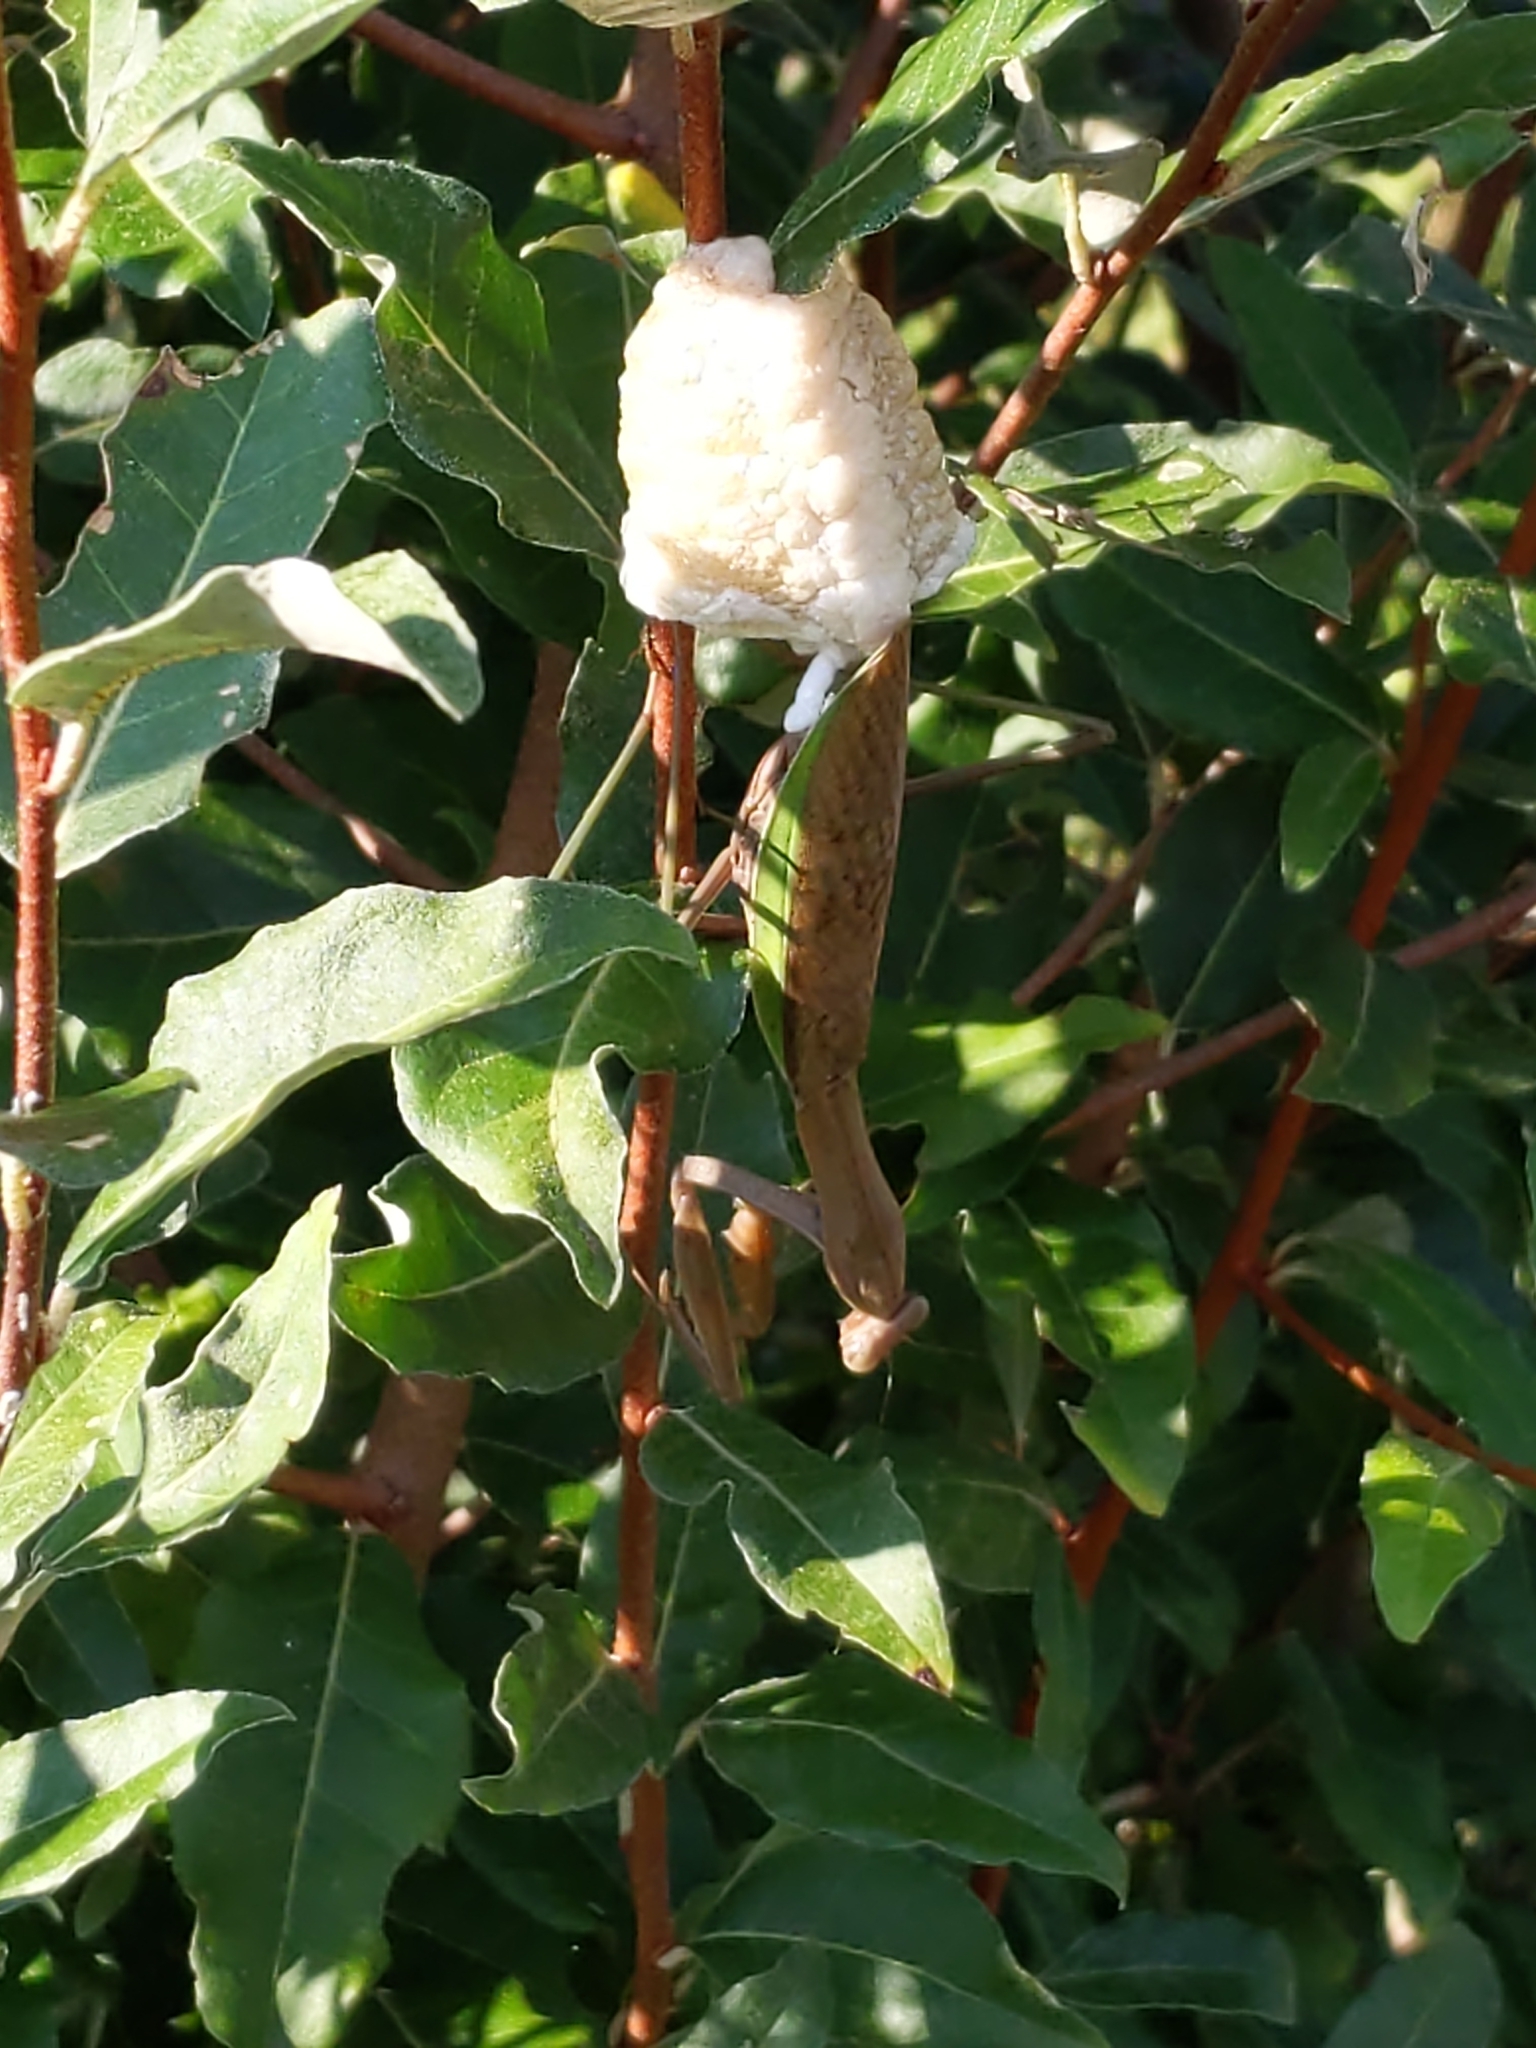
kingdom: Animalia
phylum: Arthropoda
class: Insecta
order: Mantodea
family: Mantidae
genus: Tenodera
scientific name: Tenodera sinensis
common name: Chinese mantis
